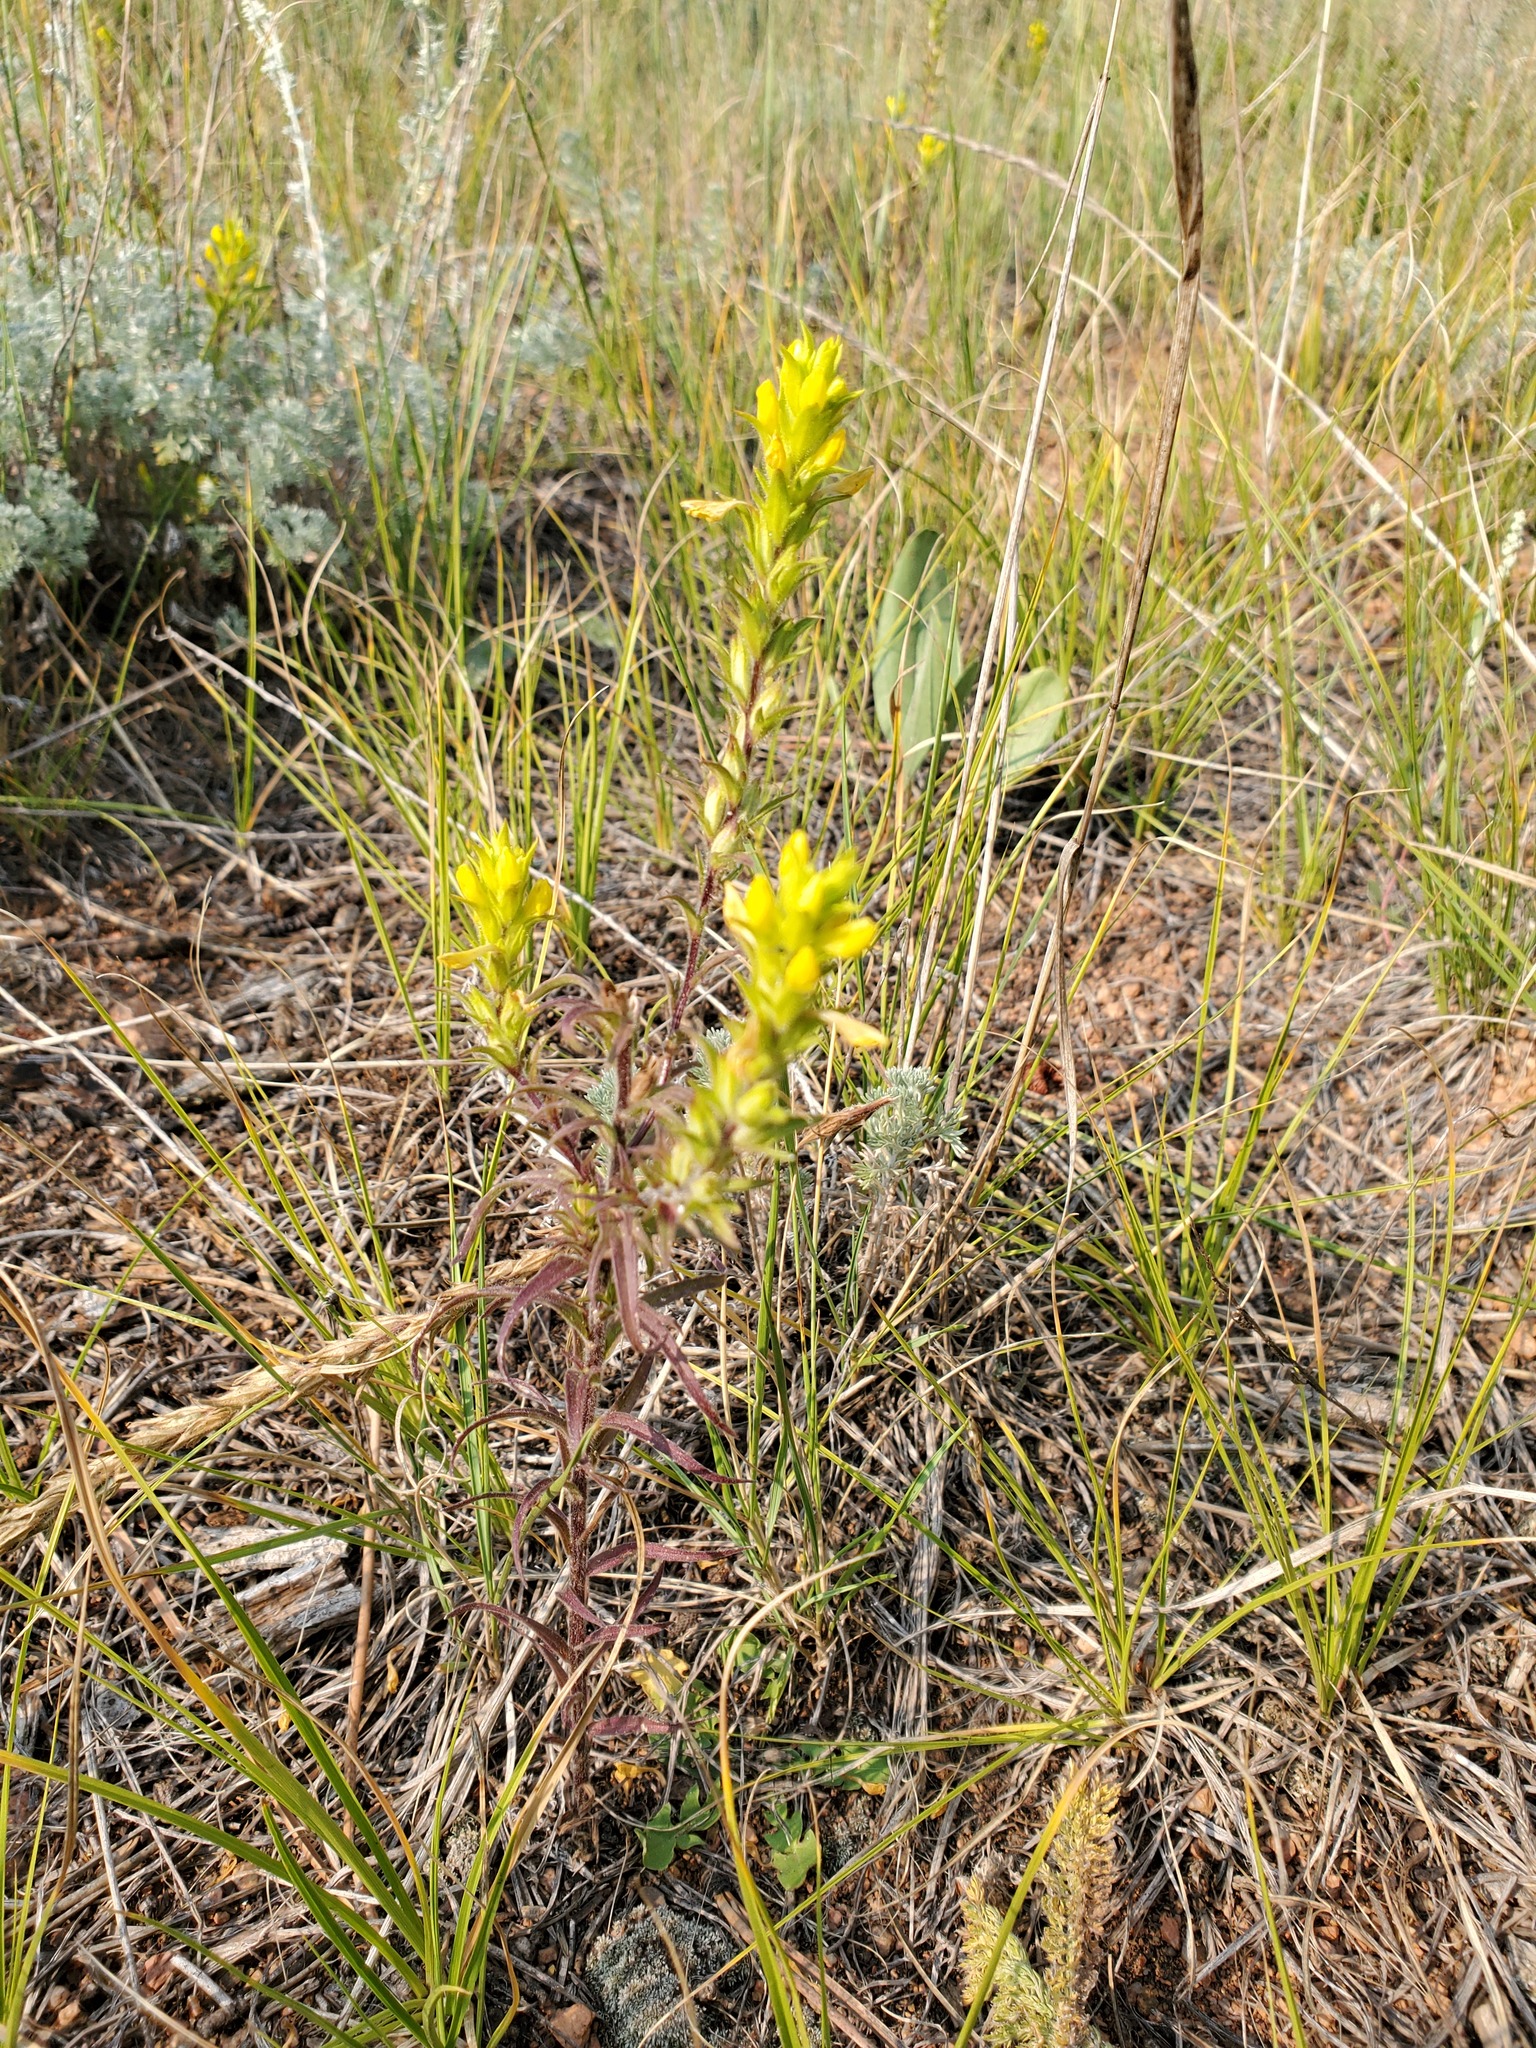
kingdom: Plantae
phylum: Tracheophyta
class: Magnoliopsida
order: Lamiales
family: Orobanchaceae
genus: Orthocarpus
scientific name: Orthocarpus luteus
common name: Golden-tongue owl's-clover
